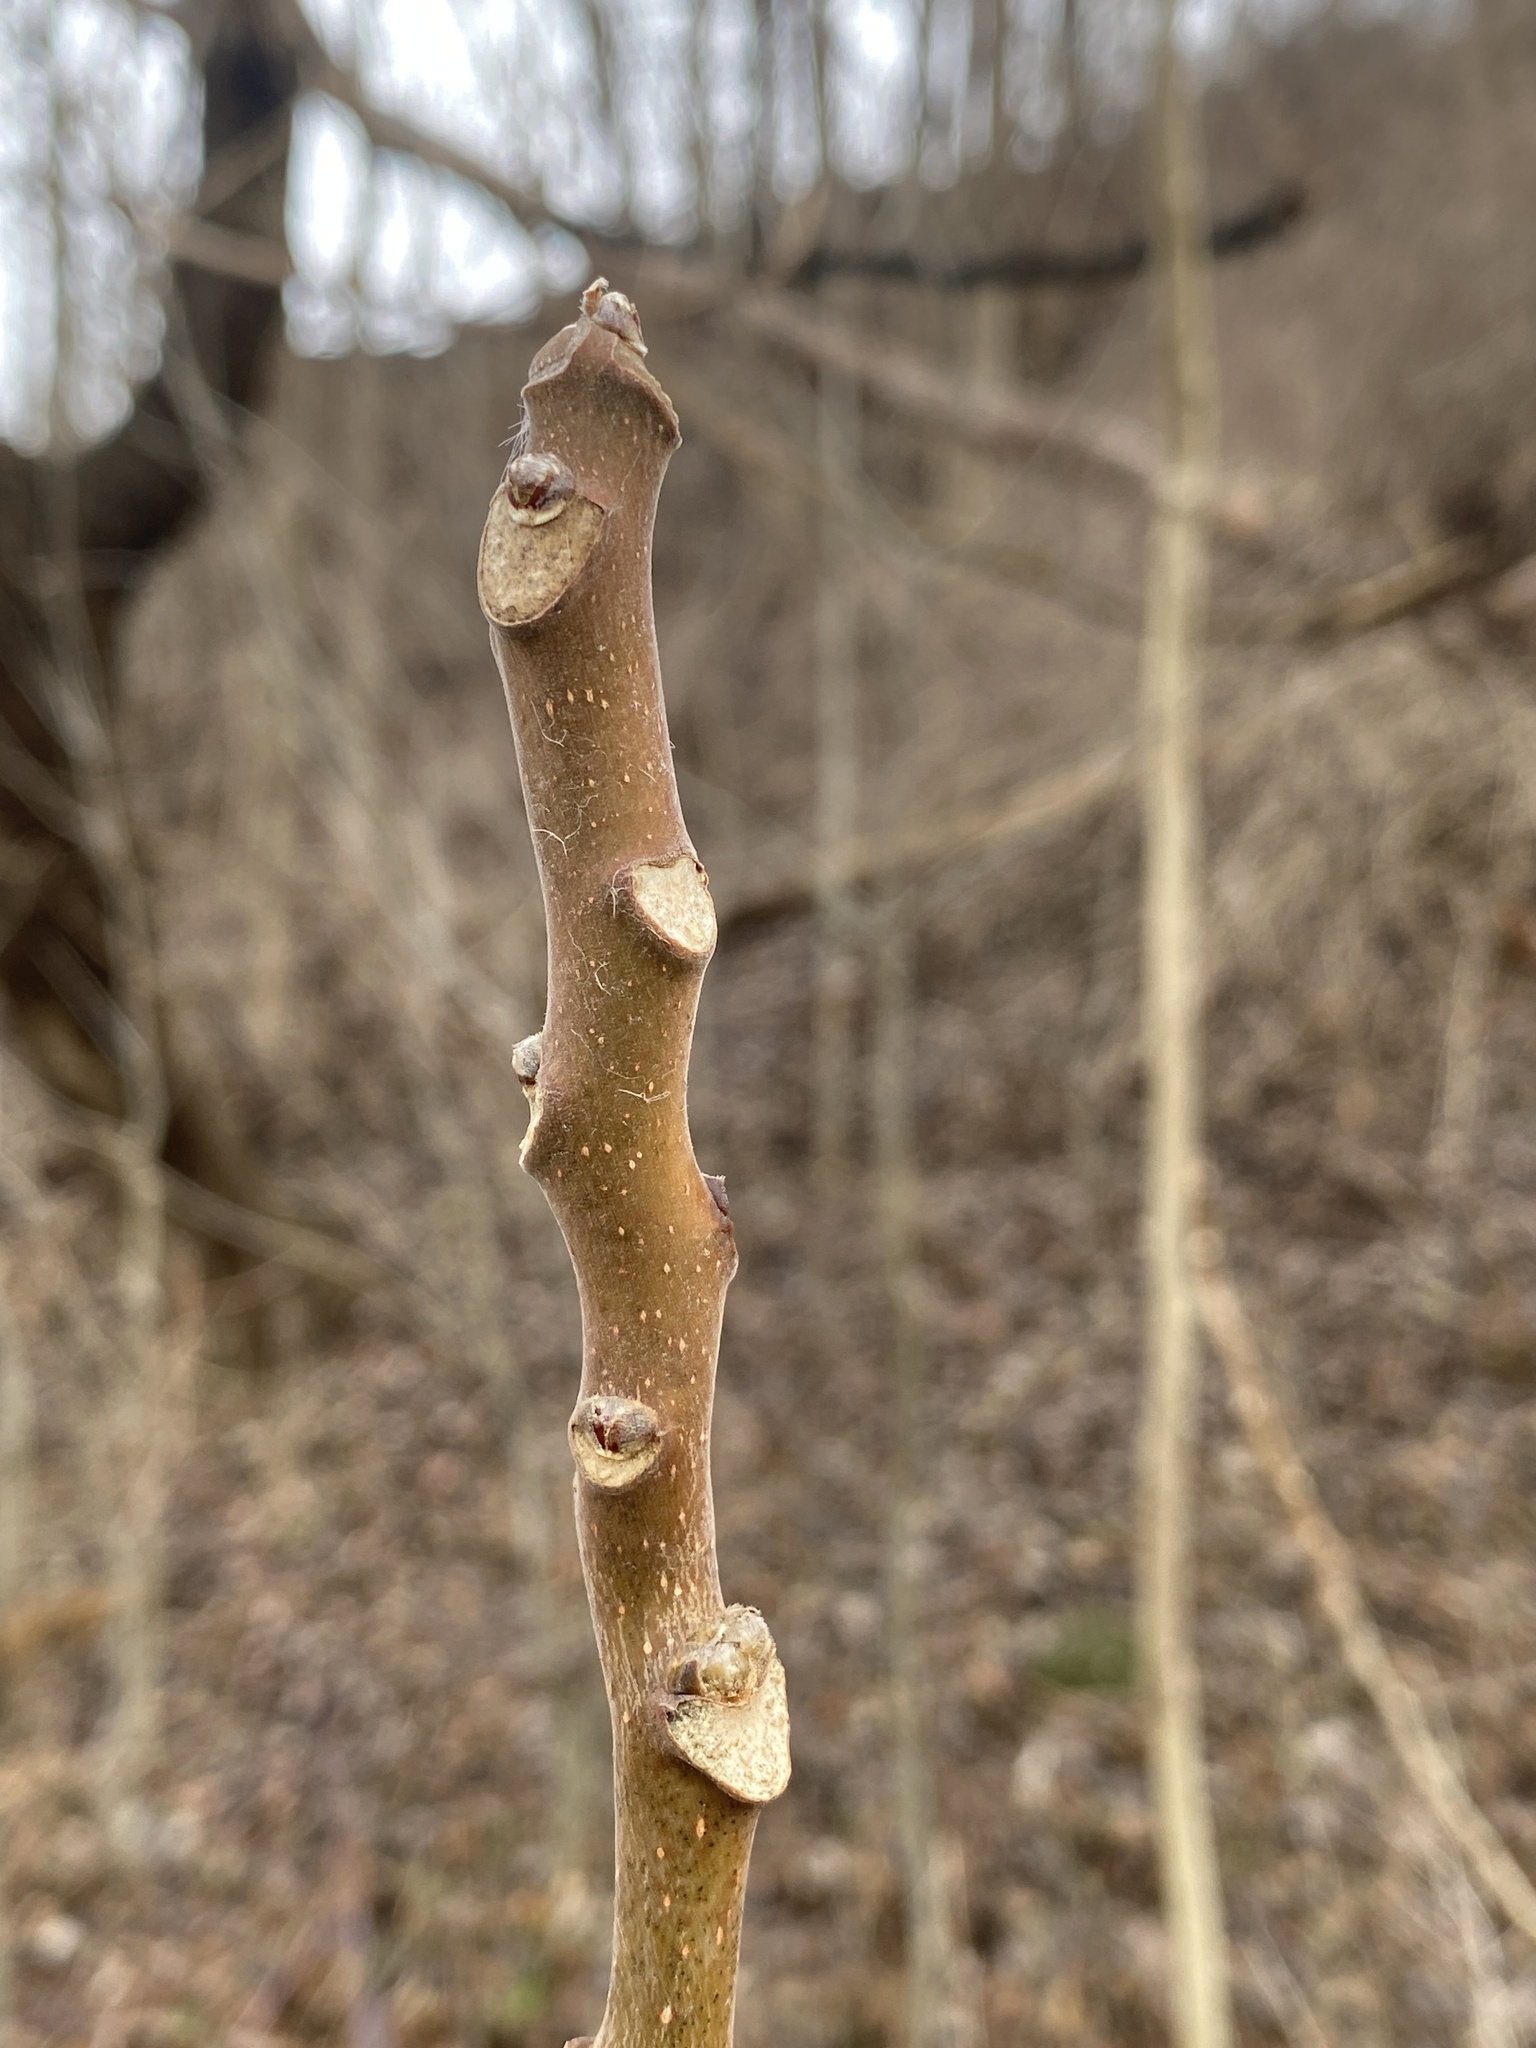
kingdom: Plantae
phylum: Tracheophyta
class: Magnoliopsida
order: Sapindales
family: Simaroubaceae
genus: Ailanthus
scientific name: Ailanthus altissima
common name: Tree-of-heaven
